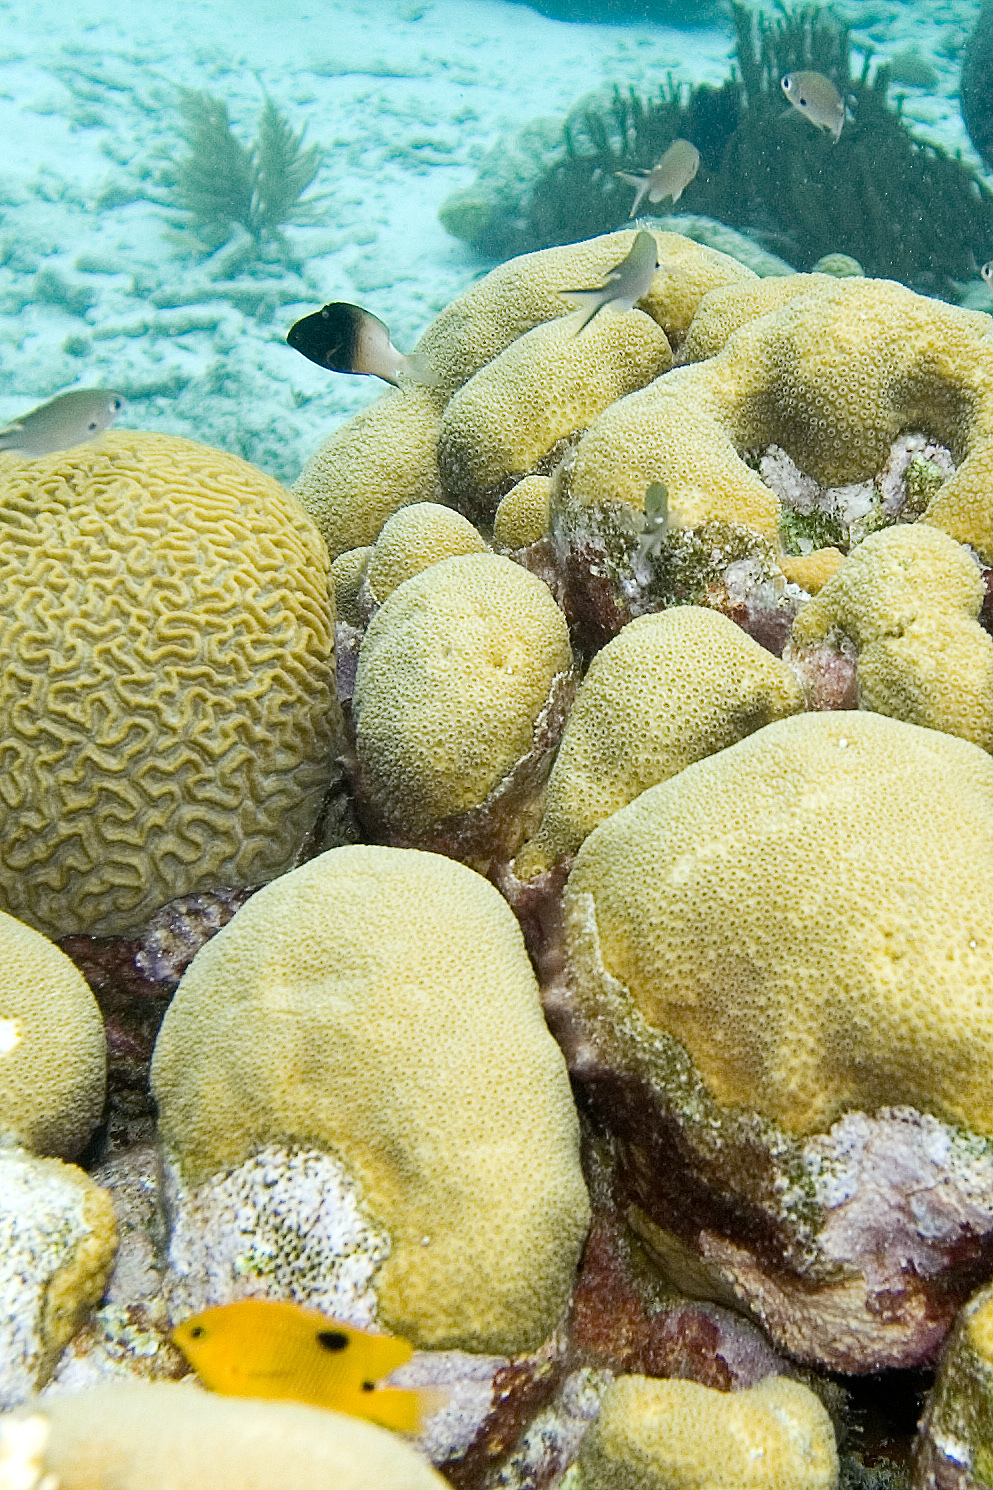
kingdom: Animalia
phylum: Chordata
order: Perciformes
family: Pomacentridae
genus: Chromis
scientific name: Chromis multilineata
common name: Brown chromis
